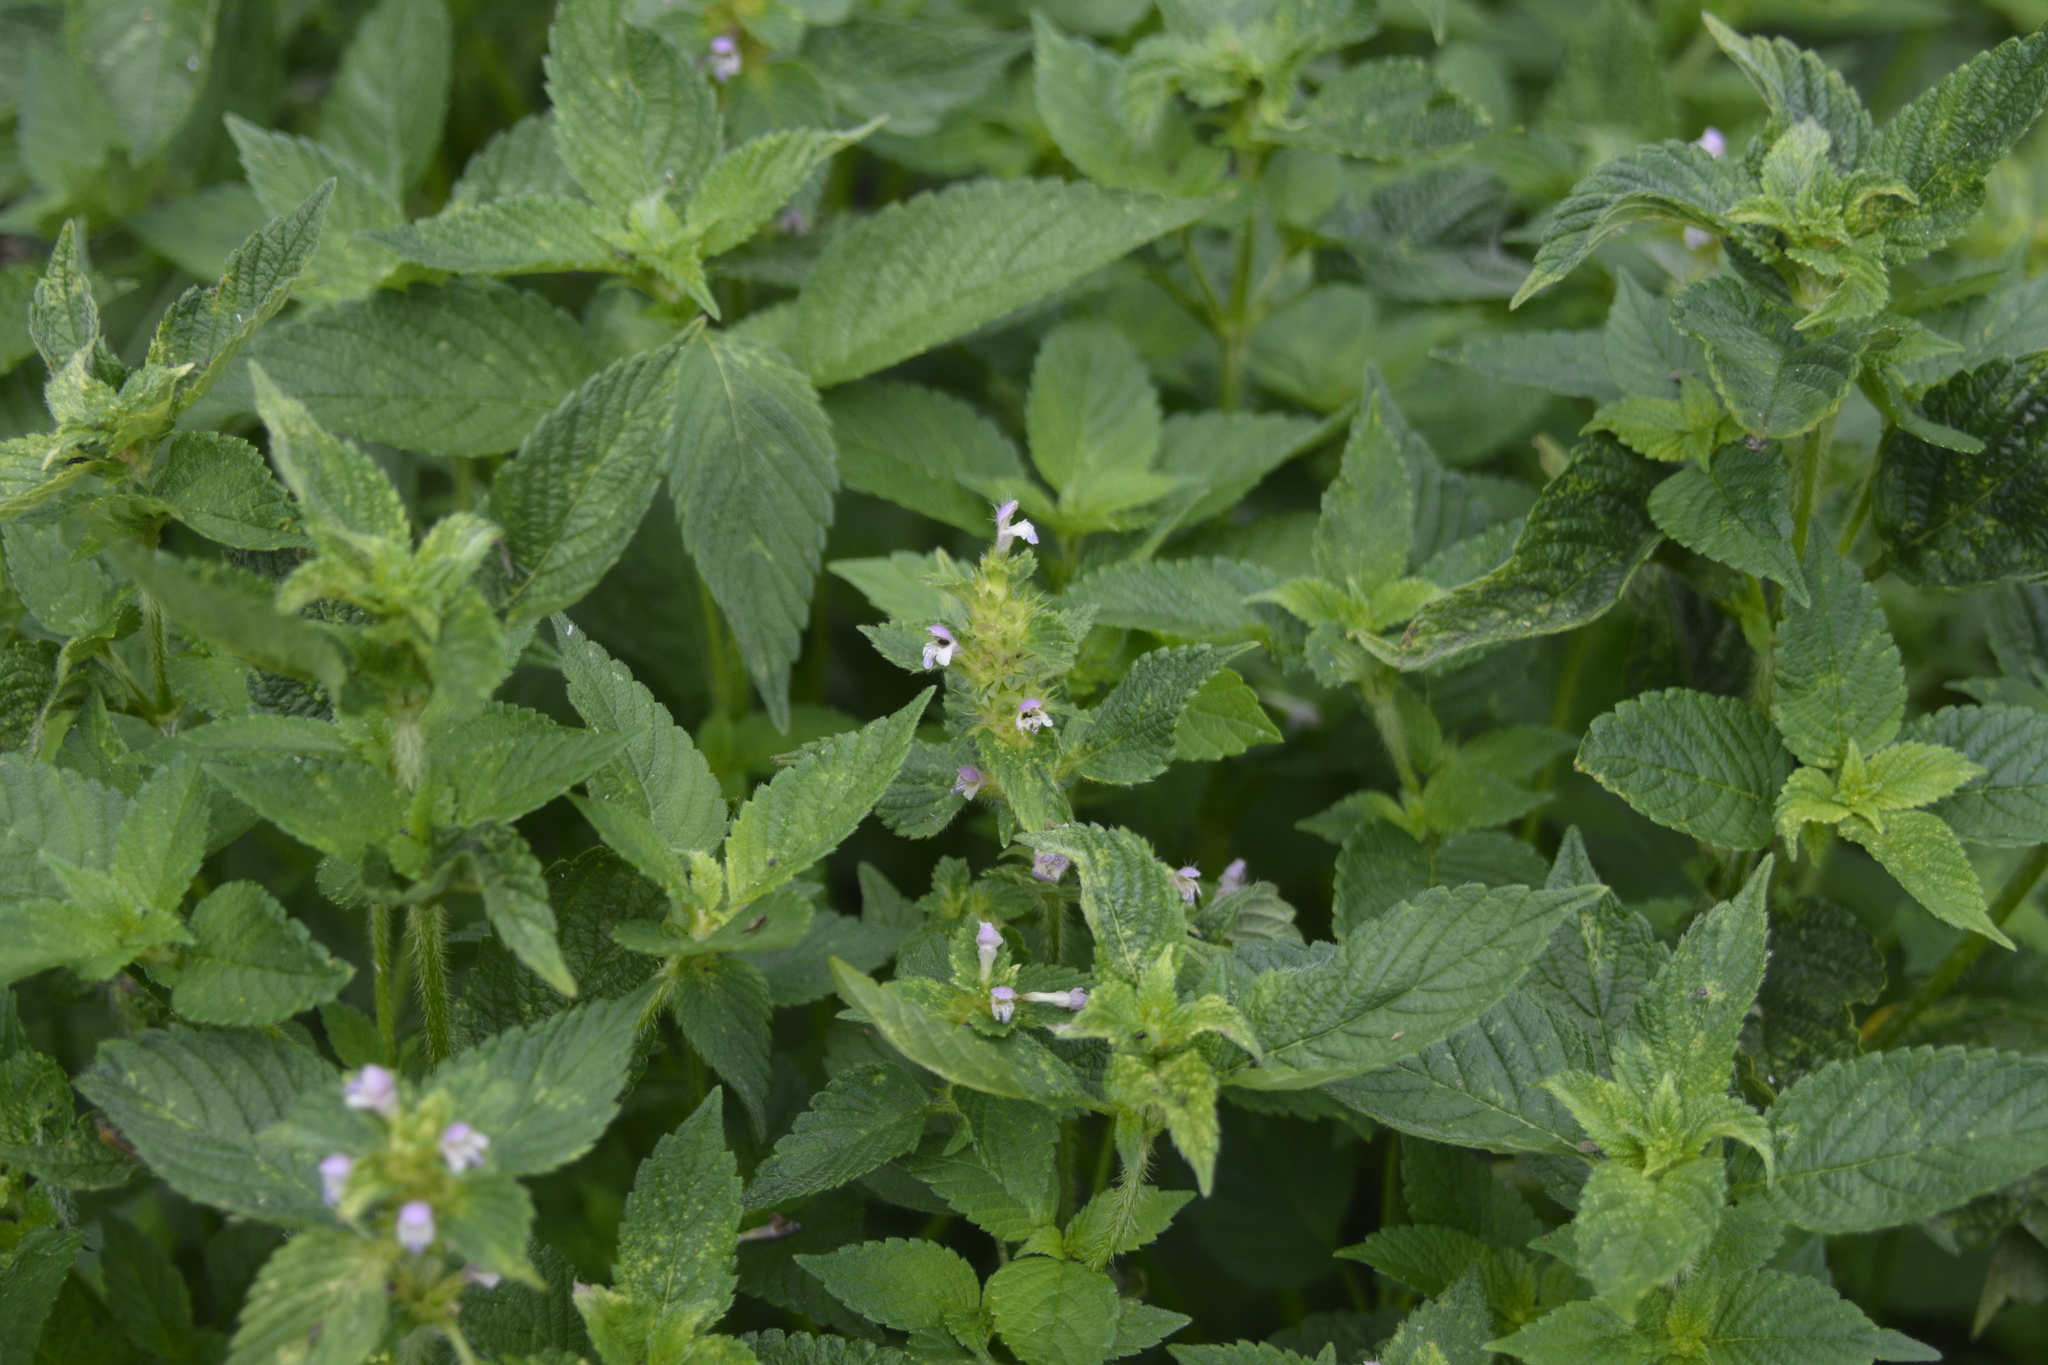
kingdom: Plantae
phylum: Tracheophyta
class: Magnoliopsida
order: Lamiales
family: Lamiaceae
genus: Galeopsis
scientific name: Galeopsis bifida
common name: Bifid hemp-nettle
